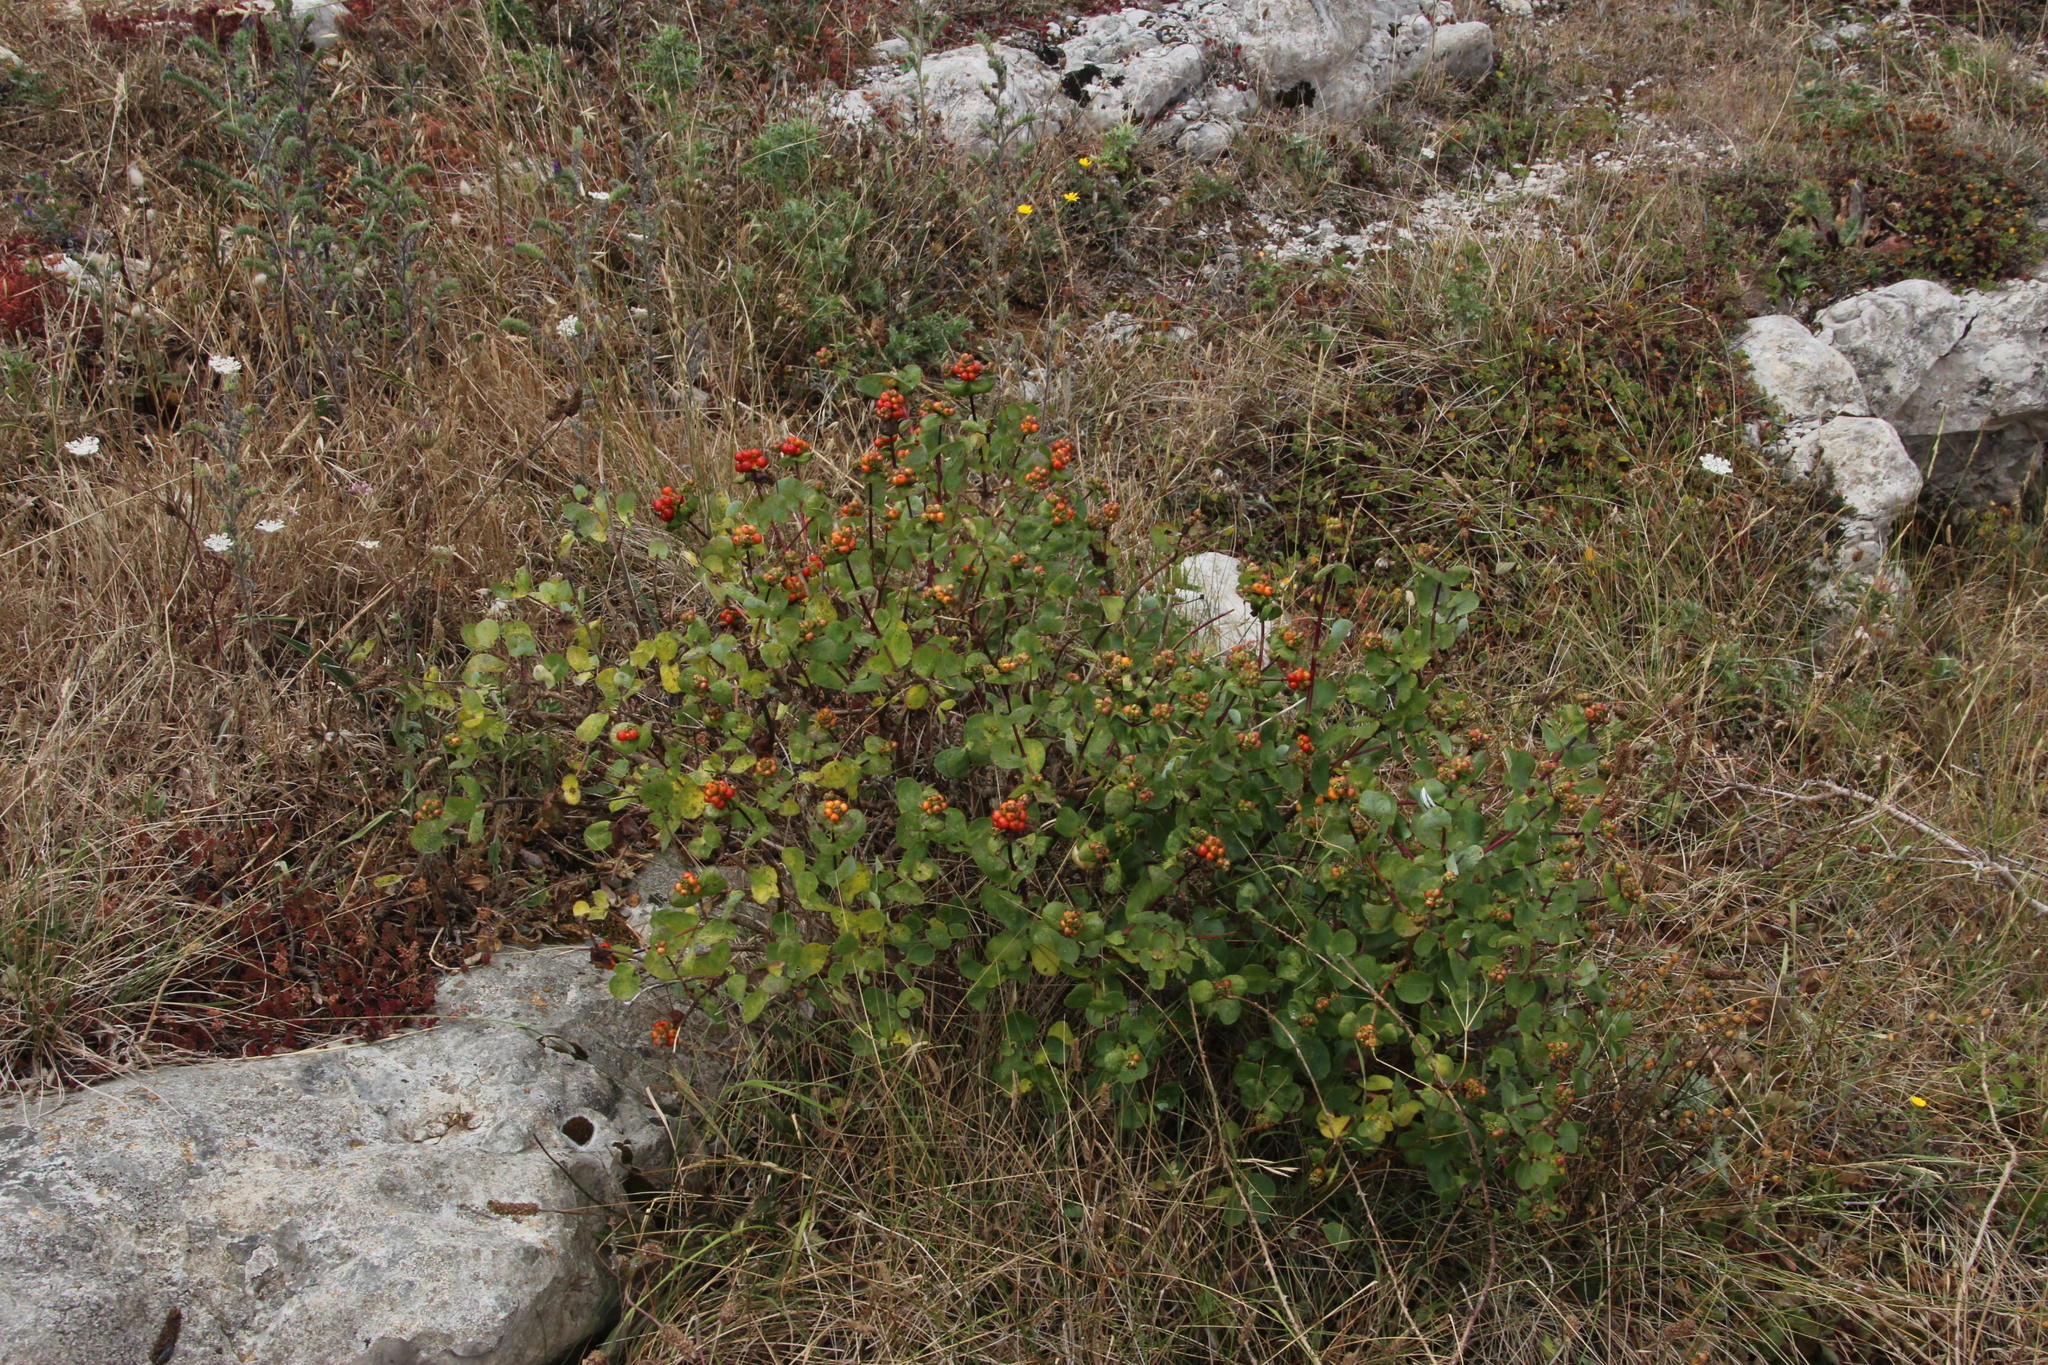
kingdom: Plantae
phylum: Tracheophyta
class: Magnoliopsida
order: Dipsacales
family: Caprifoliaceae
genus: Lonicera
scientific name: Lonicera etrusca
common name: Etruscan honeysuckle
